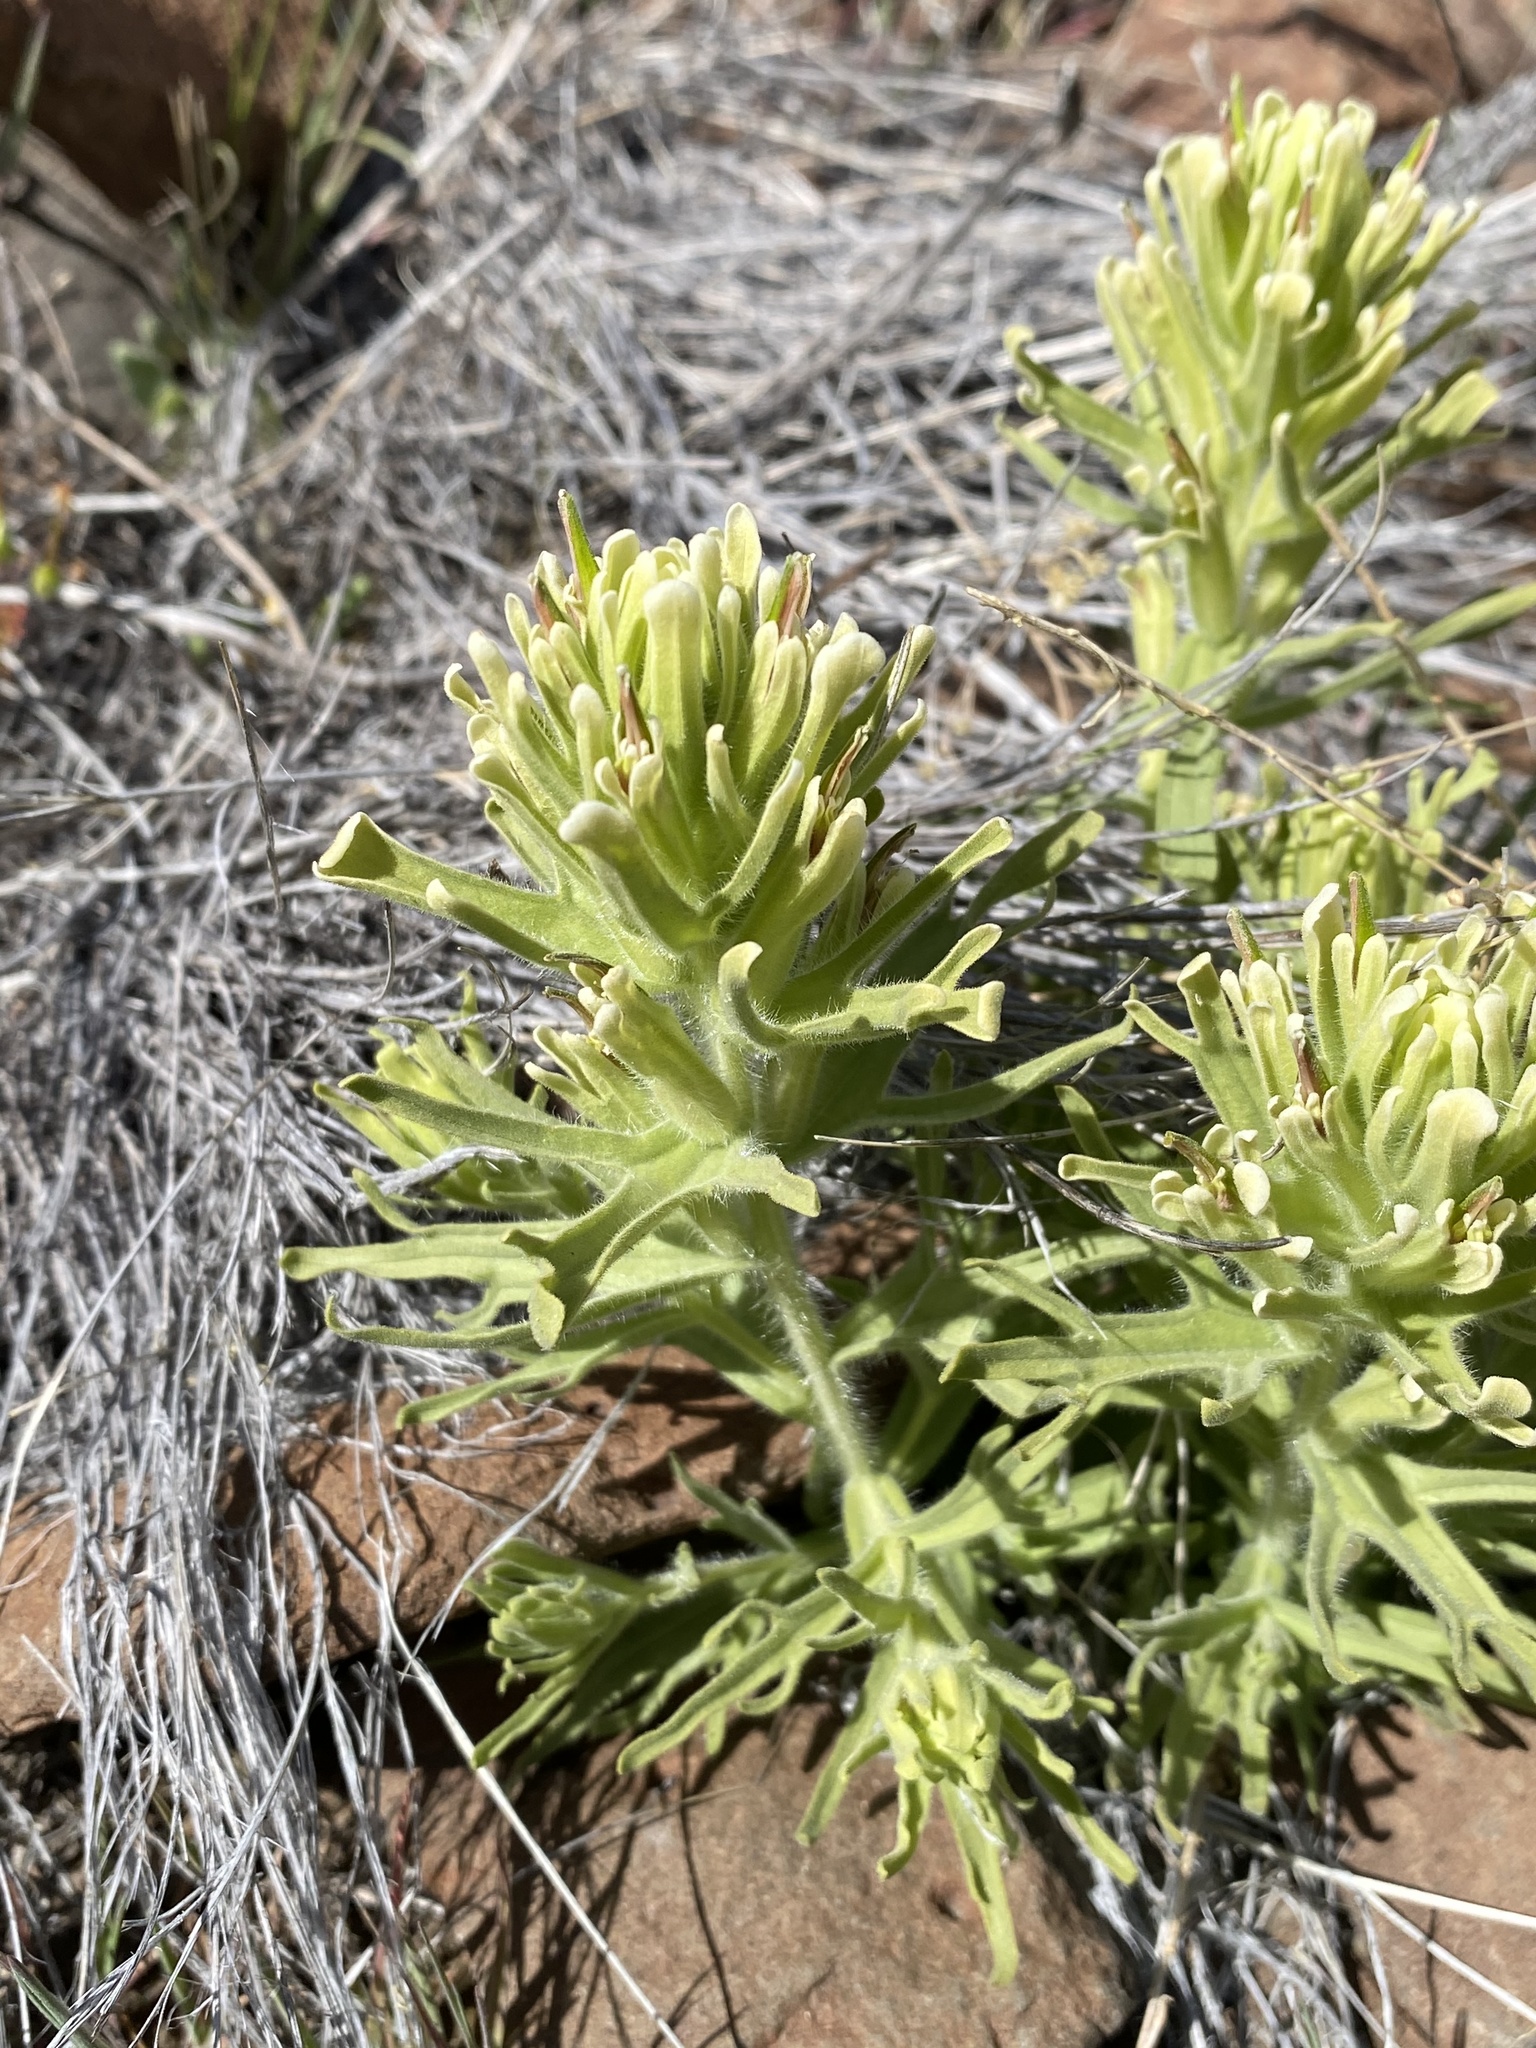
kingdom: Plantae
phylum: Tracheophyta
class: Magnoliopsida
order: Lamiales
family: Orobanchaceae
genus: Castilleja
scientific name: Castilleja xanthotricha
